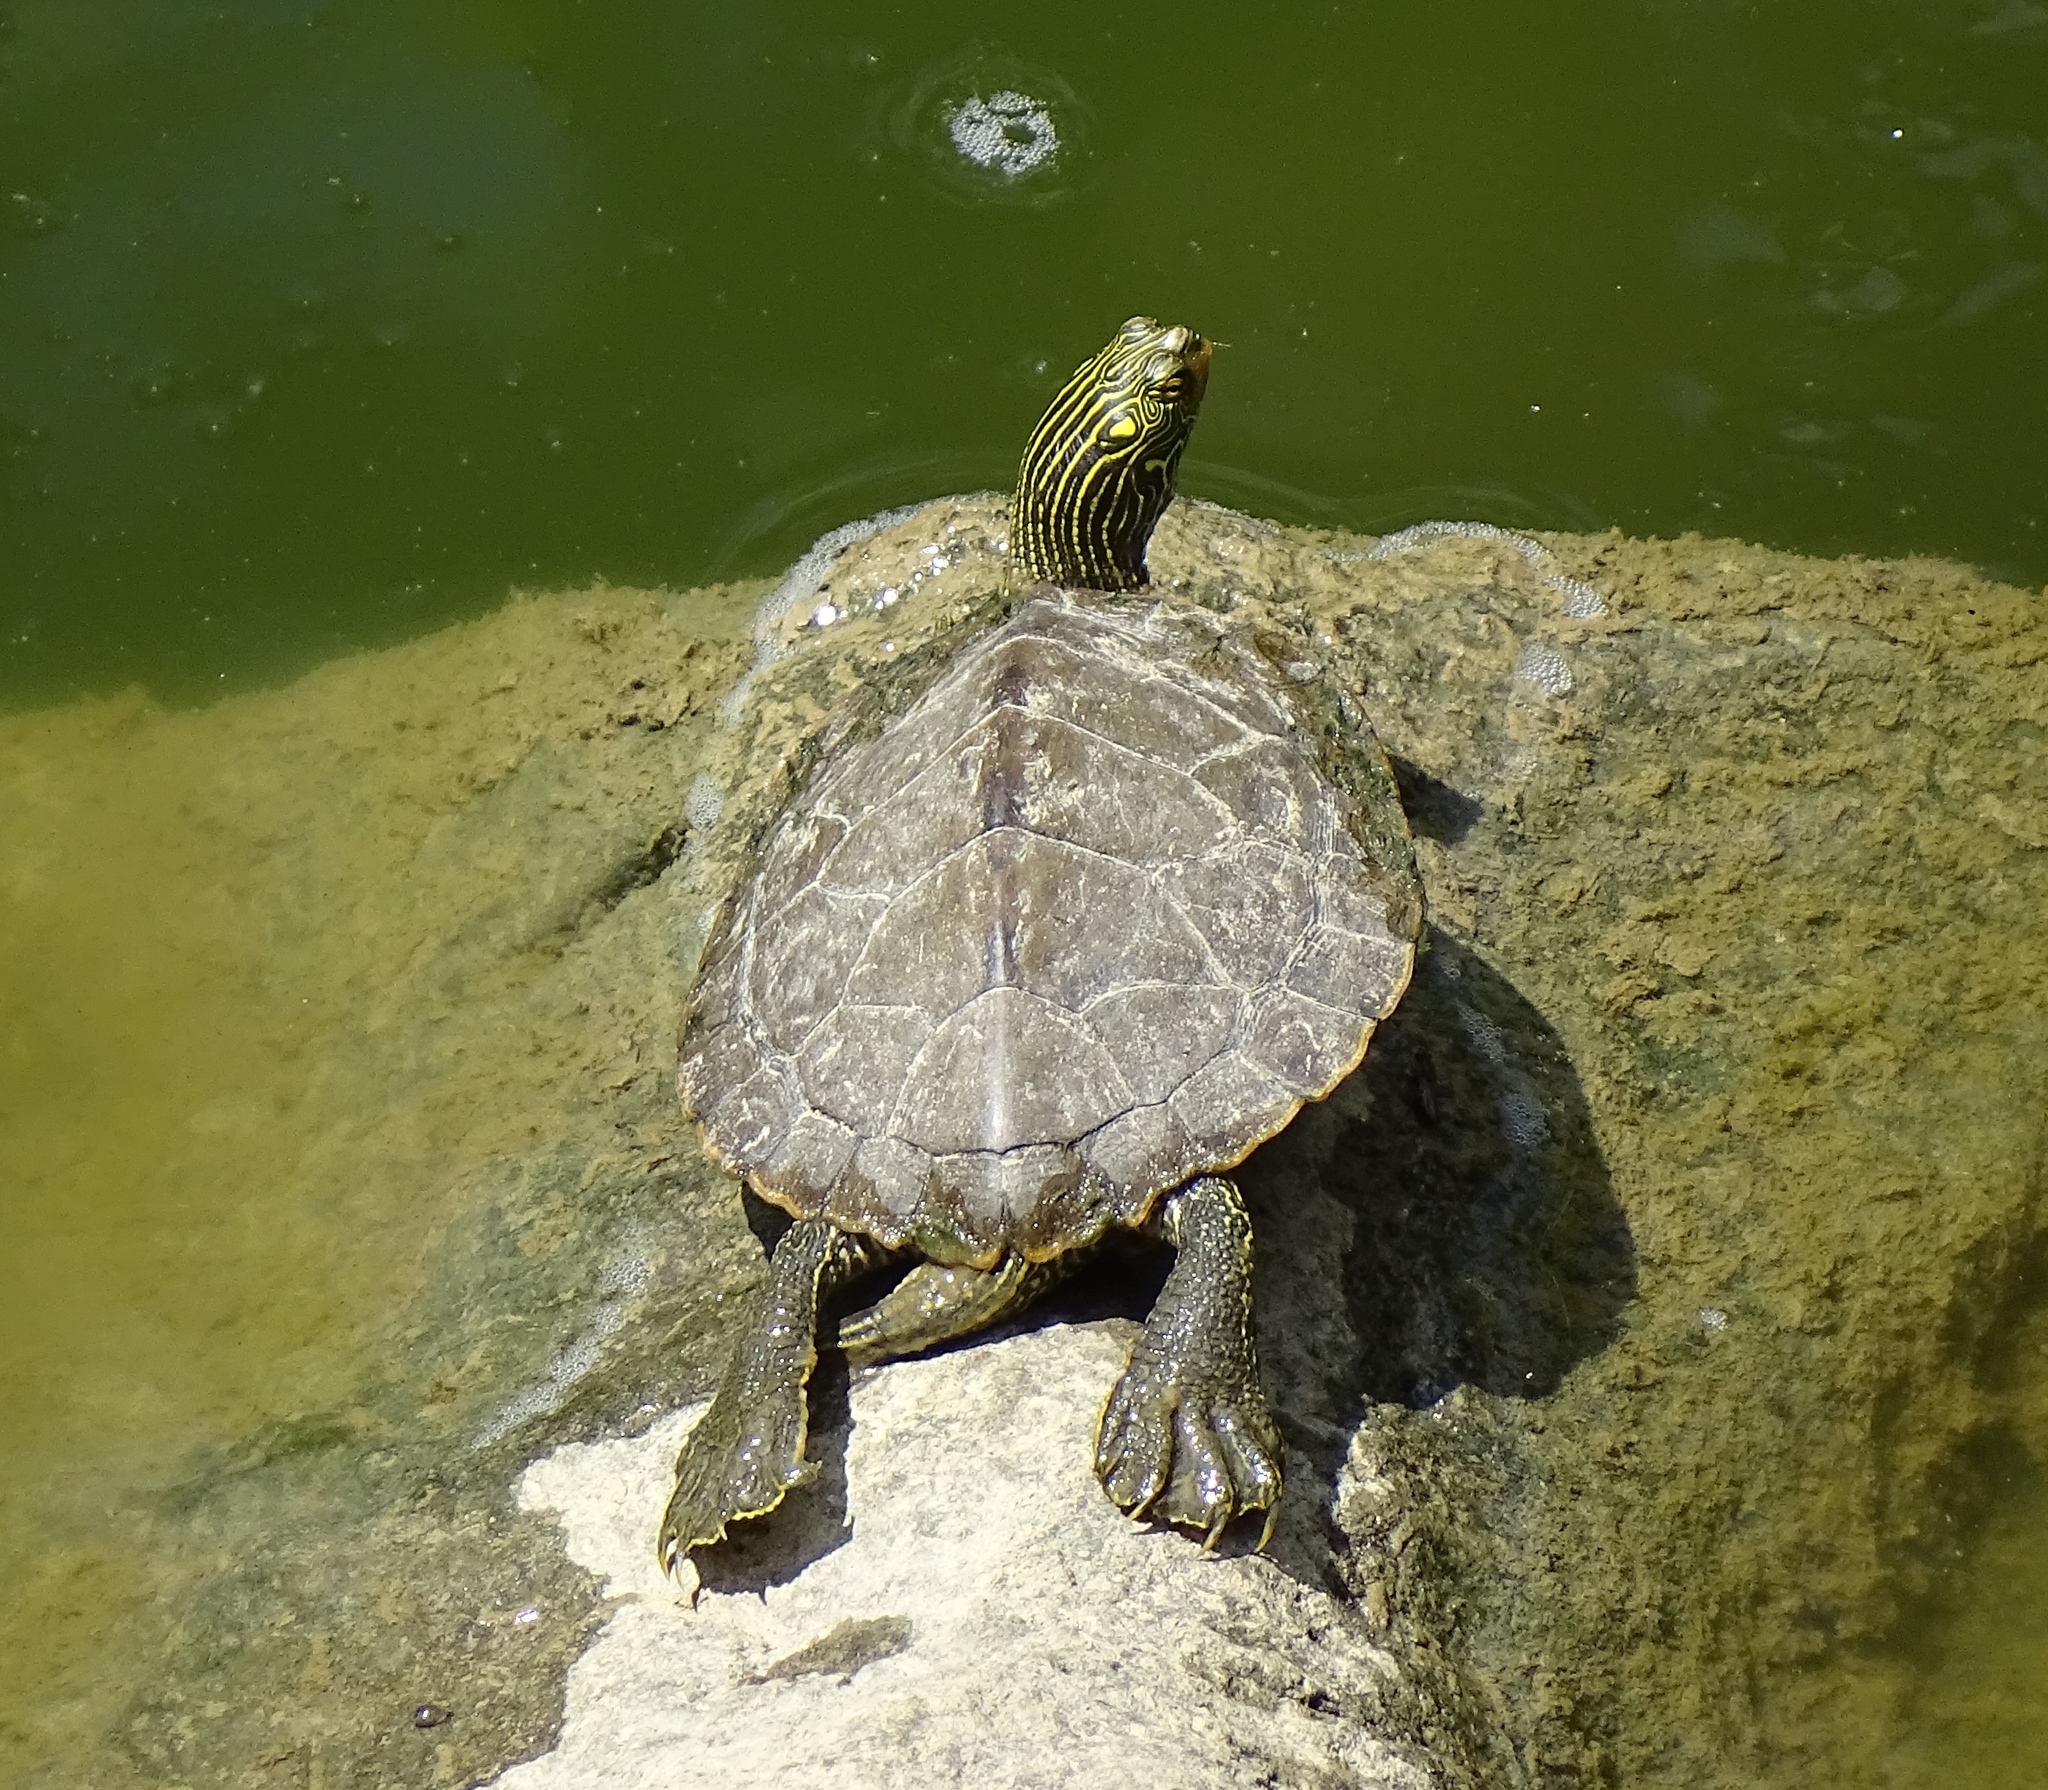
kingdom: Animalia
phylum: Chordata
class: Testudines
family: Emydidae
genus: Graptemys
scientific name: Graptemys geographica
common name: Common map turtle
